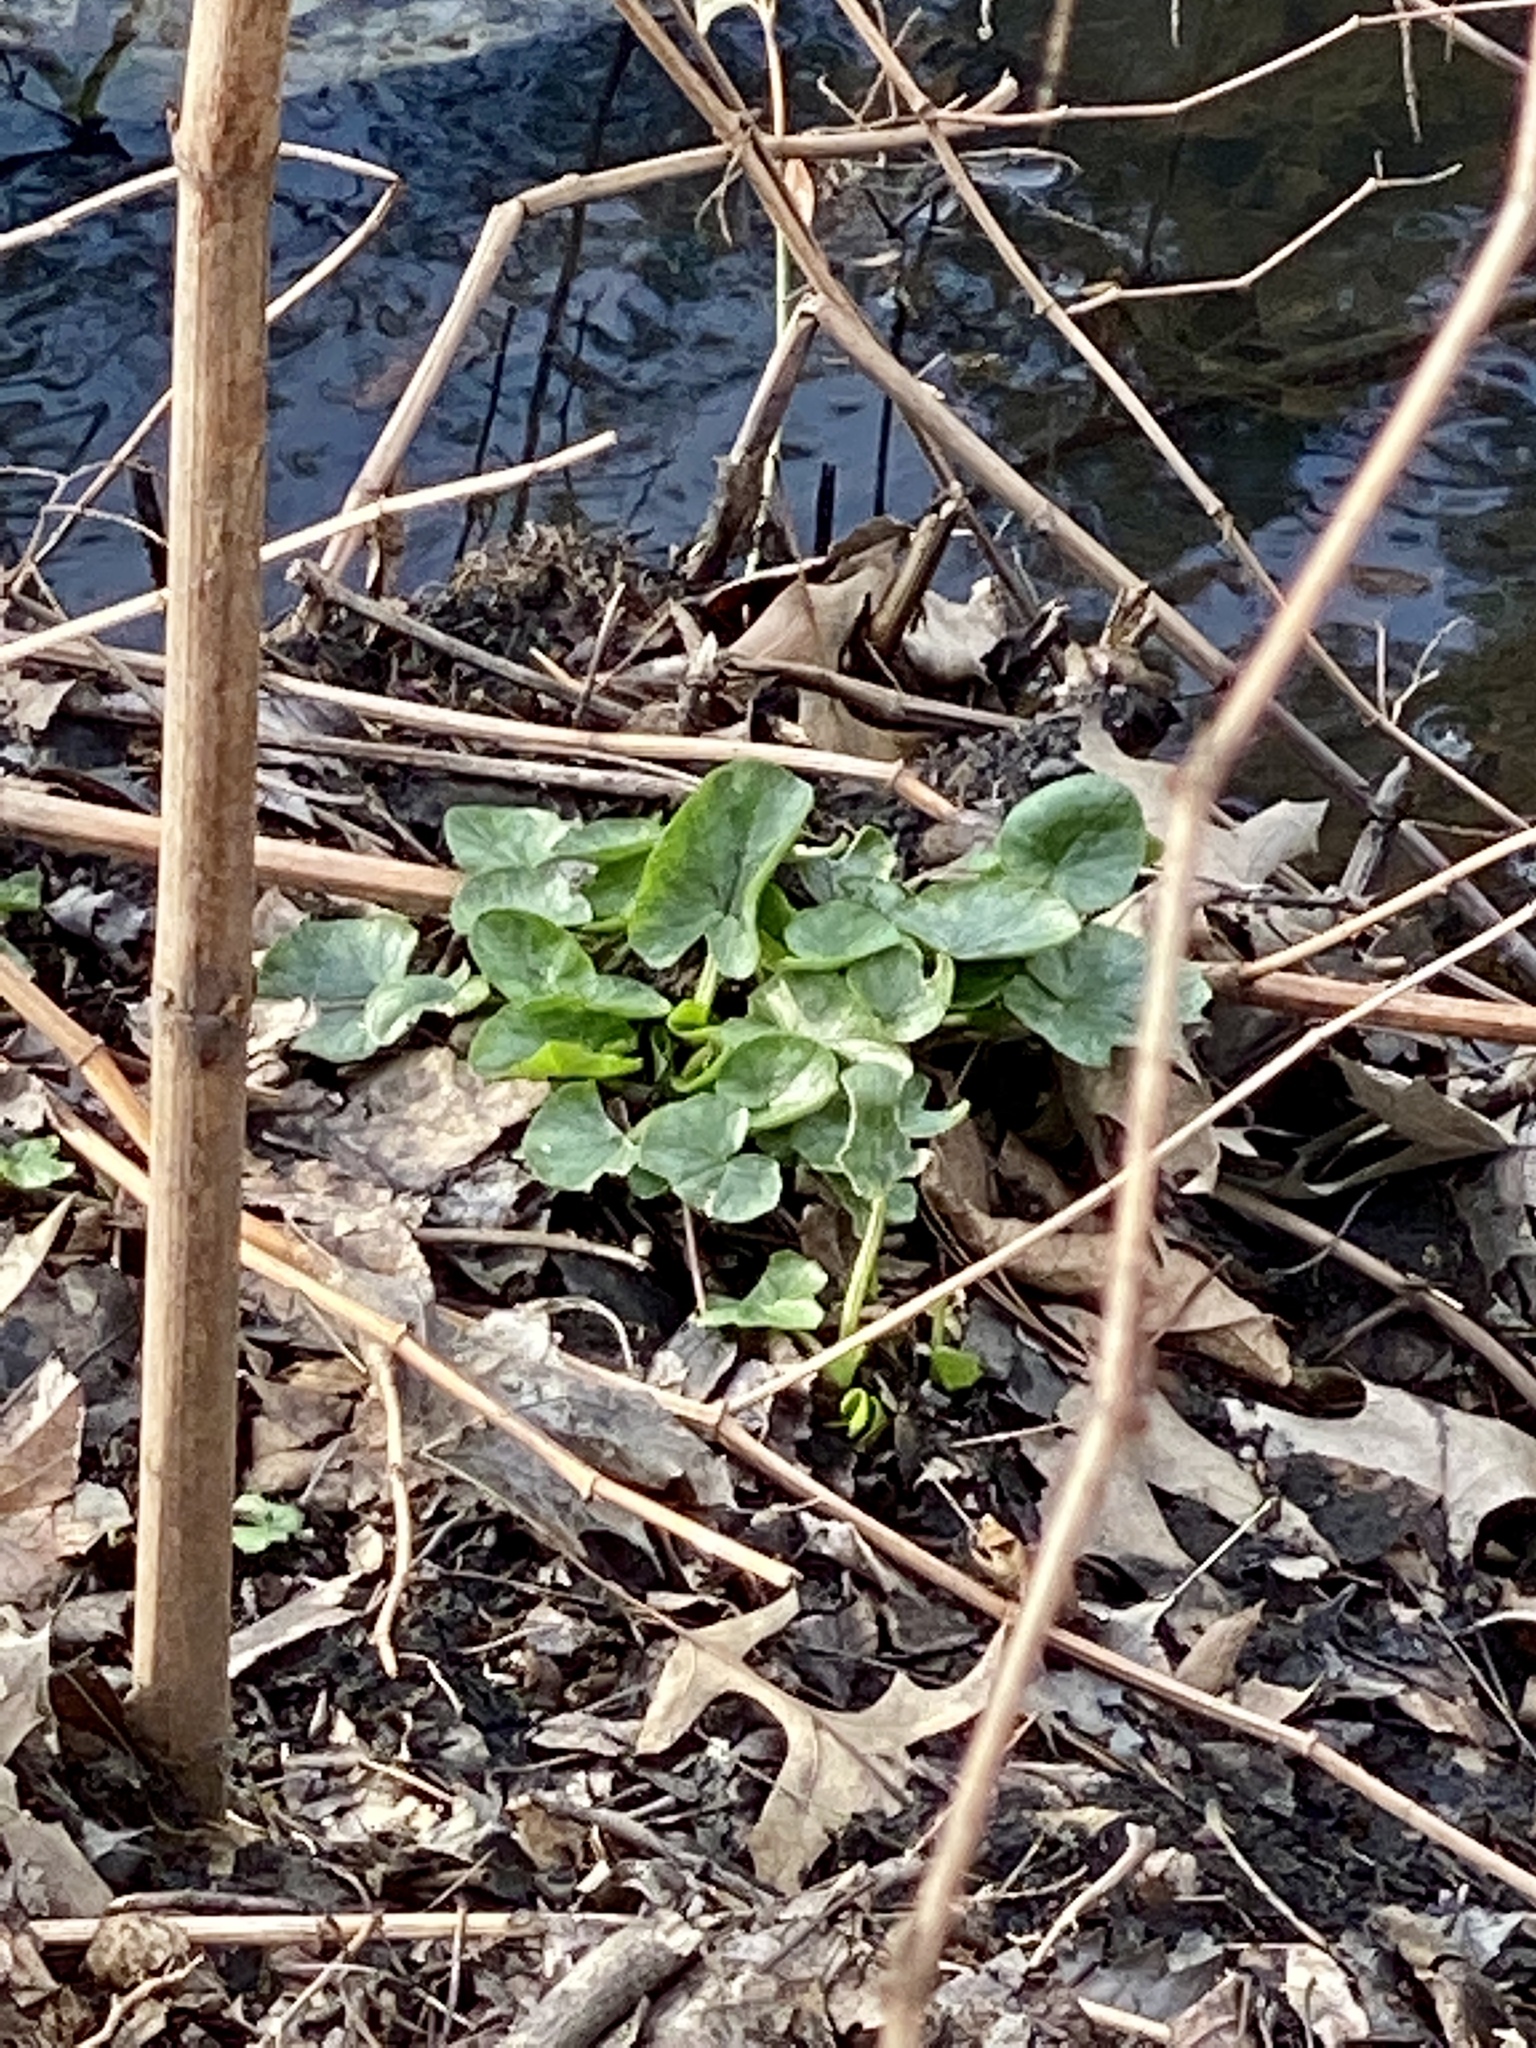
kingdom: Plantae
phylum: Tracheophyta
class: Magnoliopsida
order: Ranunculales
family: Ranunculaceae
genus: Ficaria
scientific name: Ficaria verna
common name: Lesser celandine
